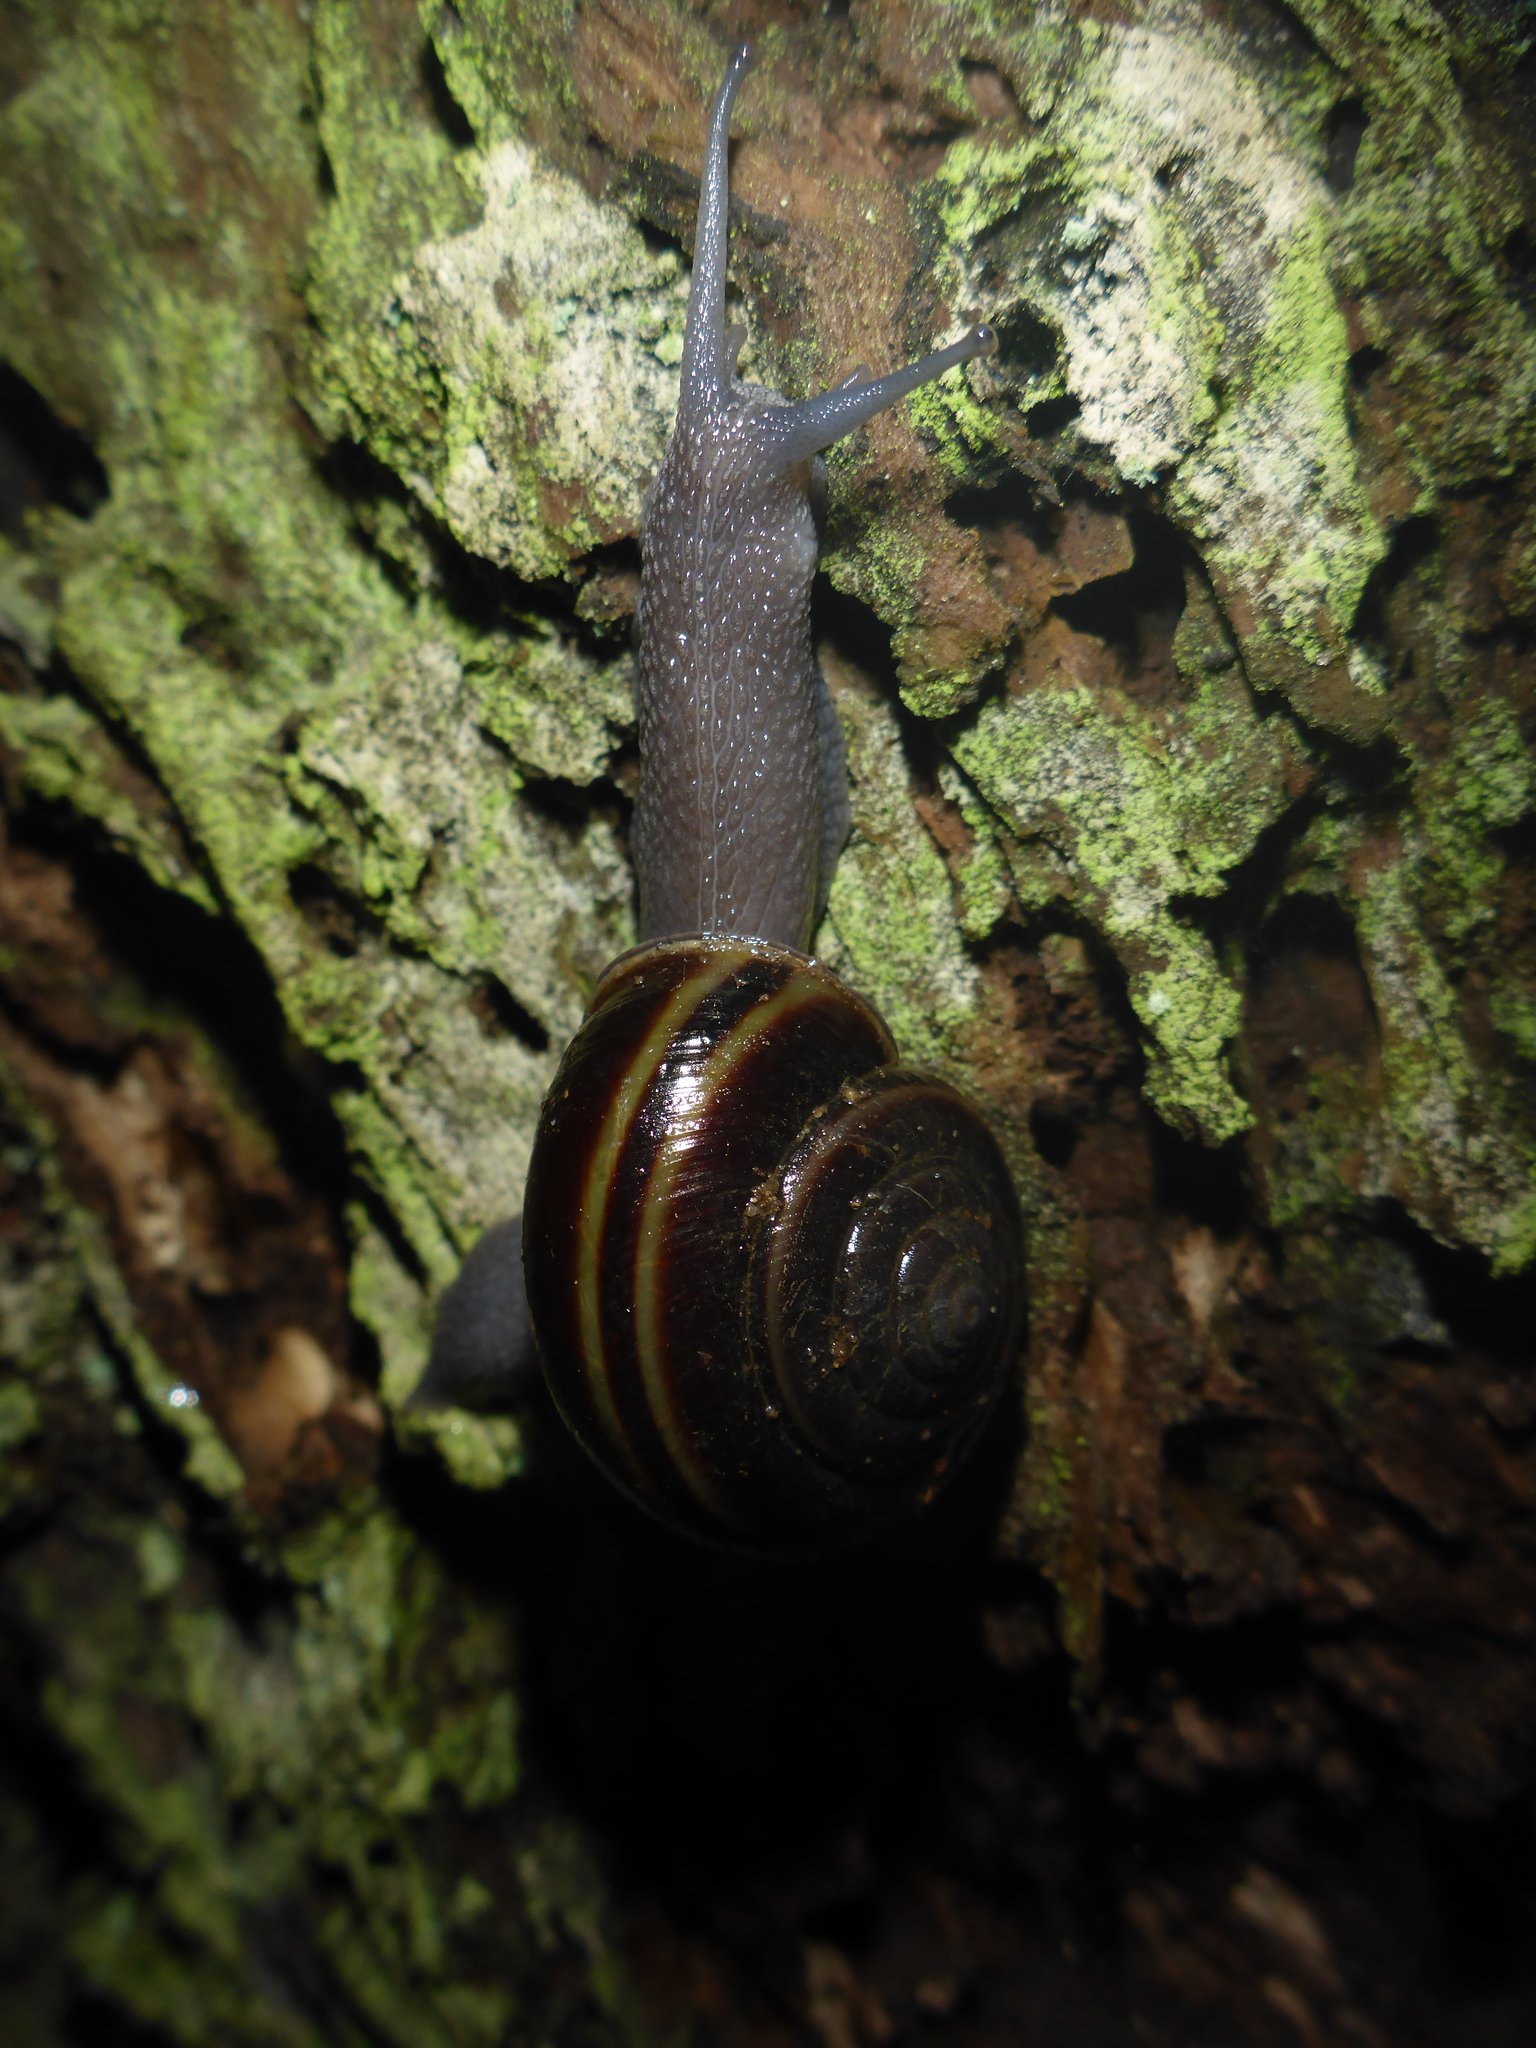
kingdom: Animalia
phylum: Mollusca
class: Gastropoda
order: Stylommatophora
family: Xanthonychidae
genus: Helminthoglypta
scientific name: Helminthoglypta sequoicola
